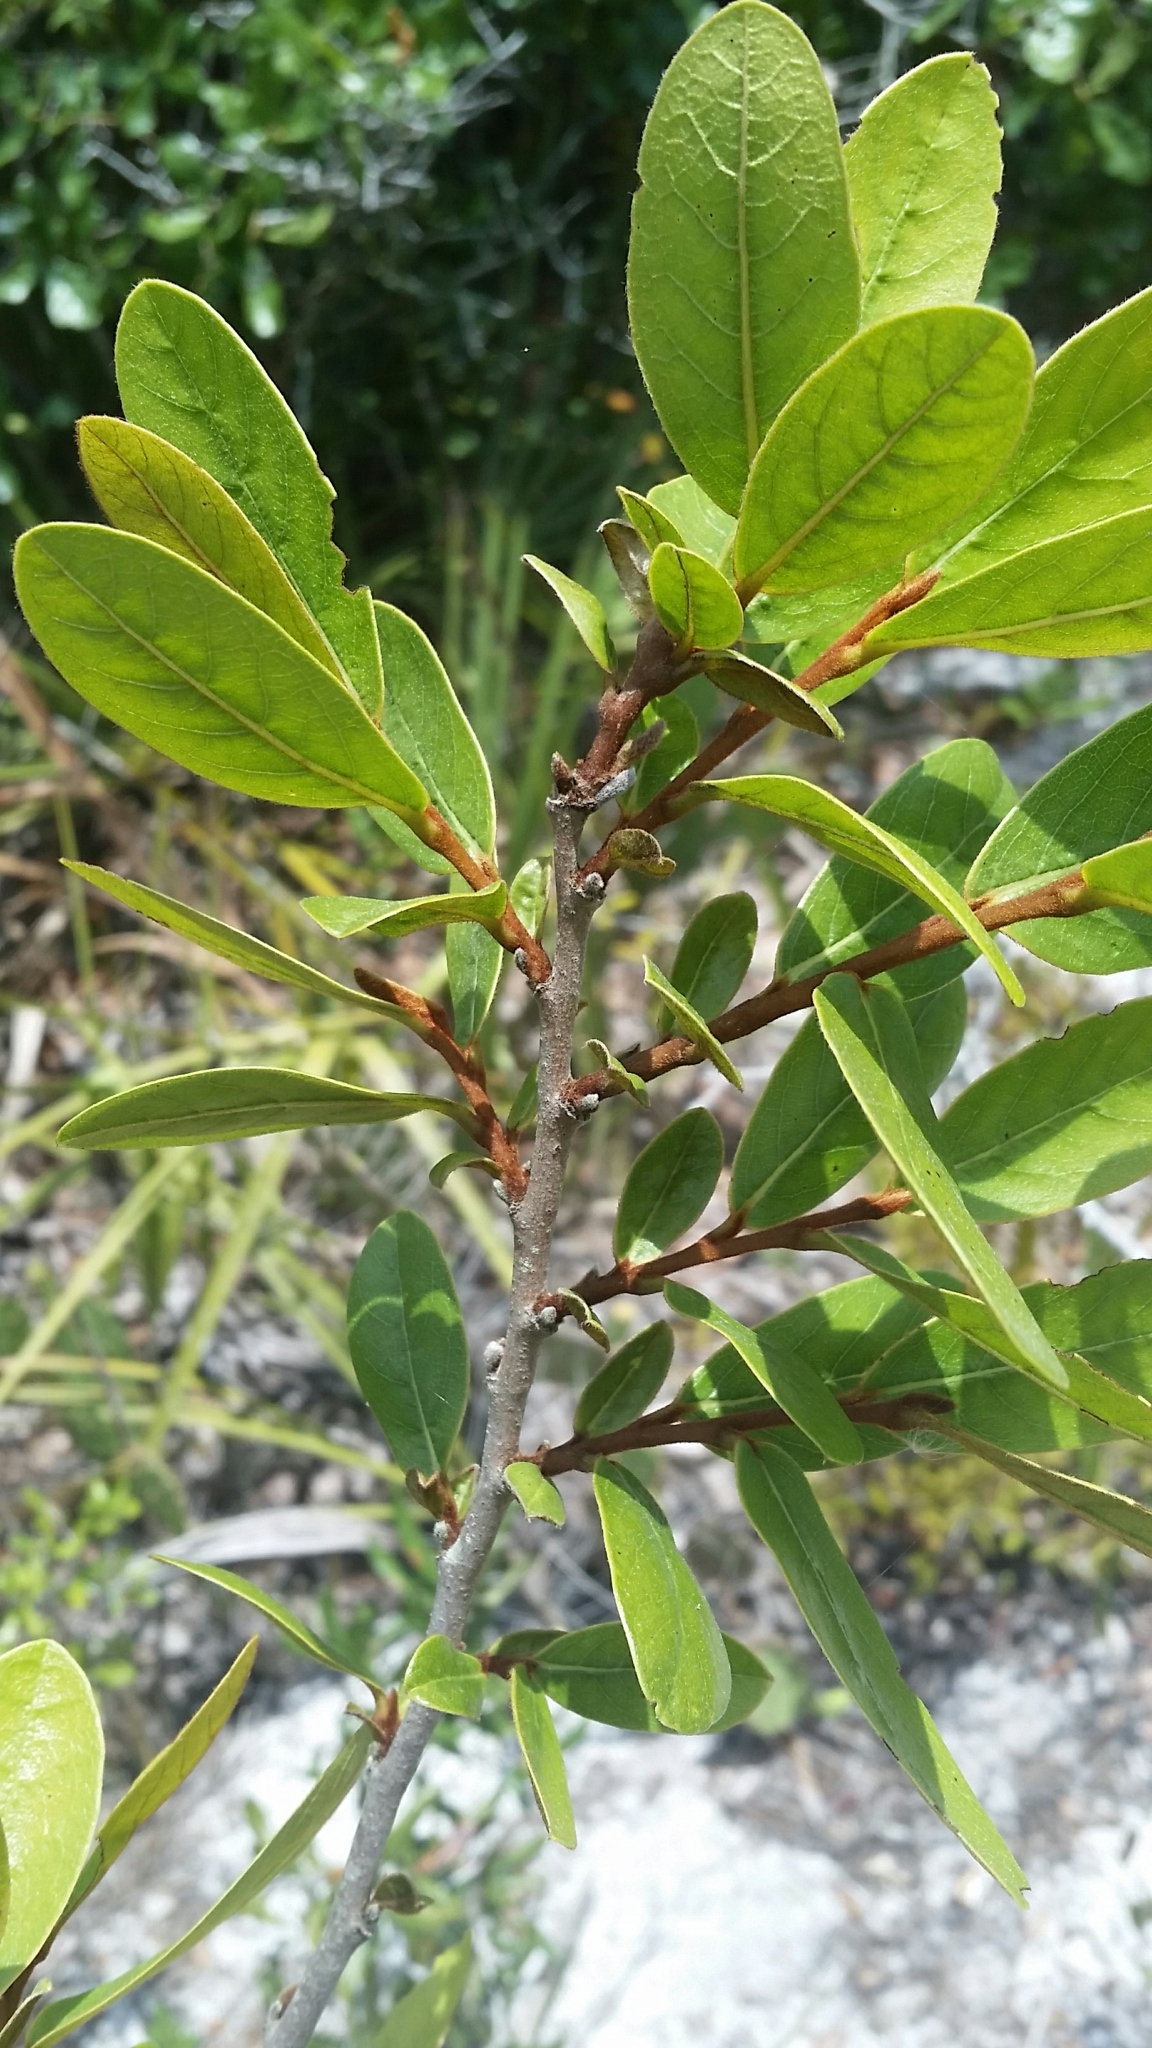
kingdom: Plantae
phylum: Tracheophyta
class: Magnoliopsida
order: Magnoliales
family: Annonaceae
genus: Asimina
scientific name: Asimina obovata
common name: Flag pawpaw
